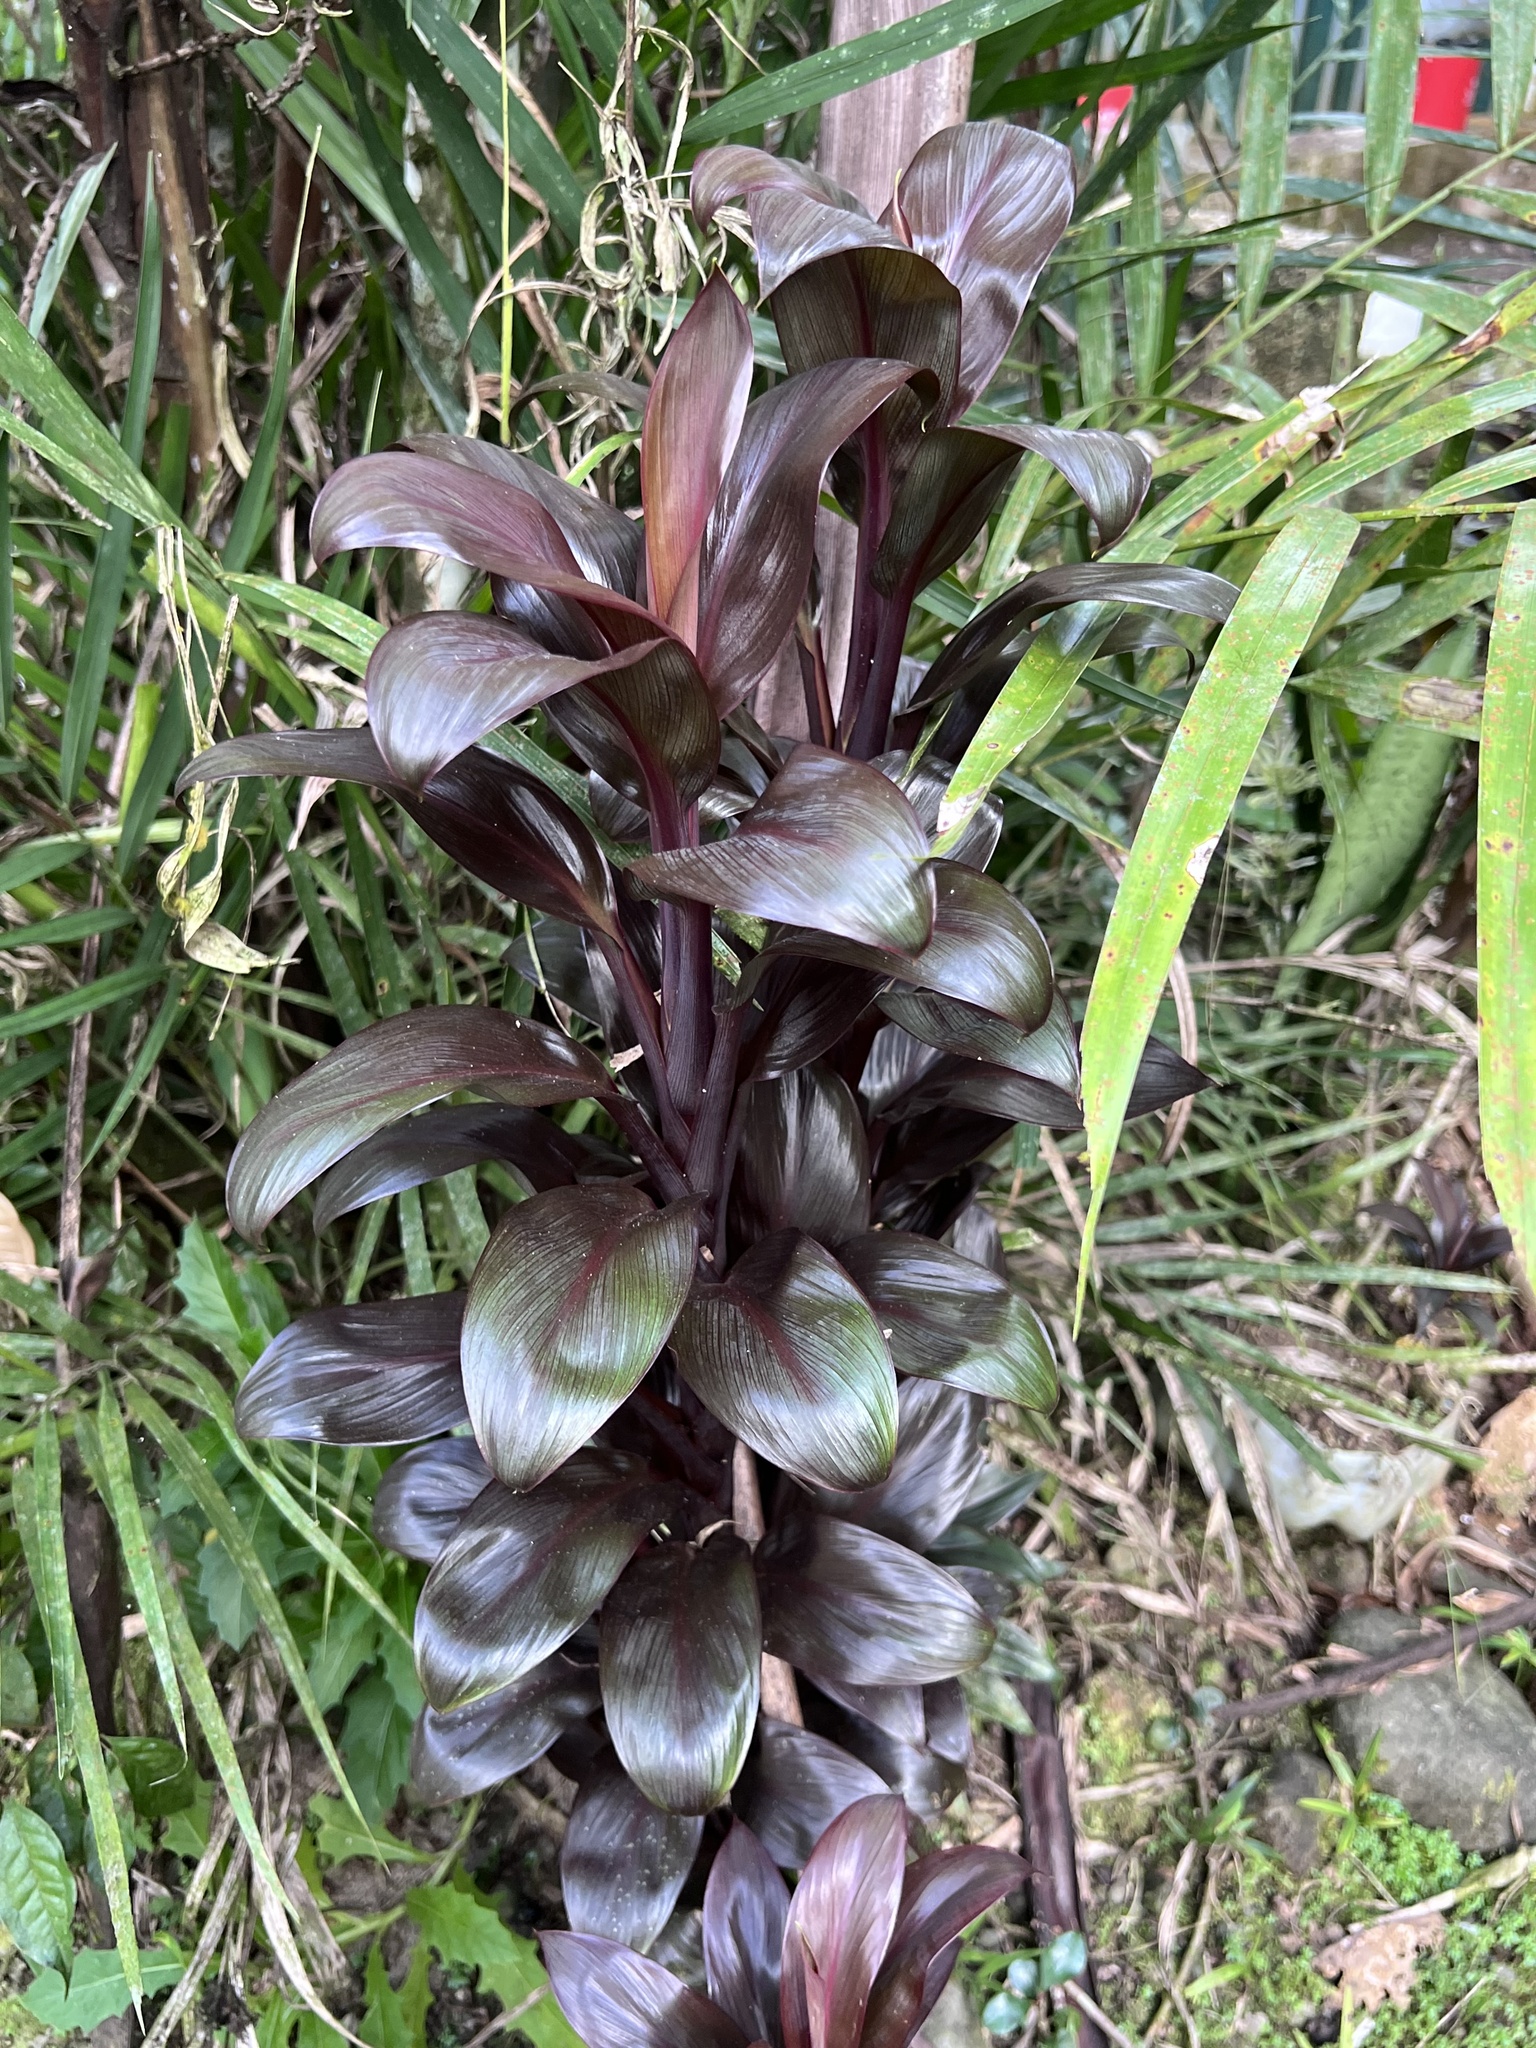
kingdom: Plantae
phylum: Tracheophyta
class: Liliopsida
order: Asparagales
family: Asparagaceae
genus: Cordyline
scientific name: Cordyline fruticosa
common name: Good-luck-plant
